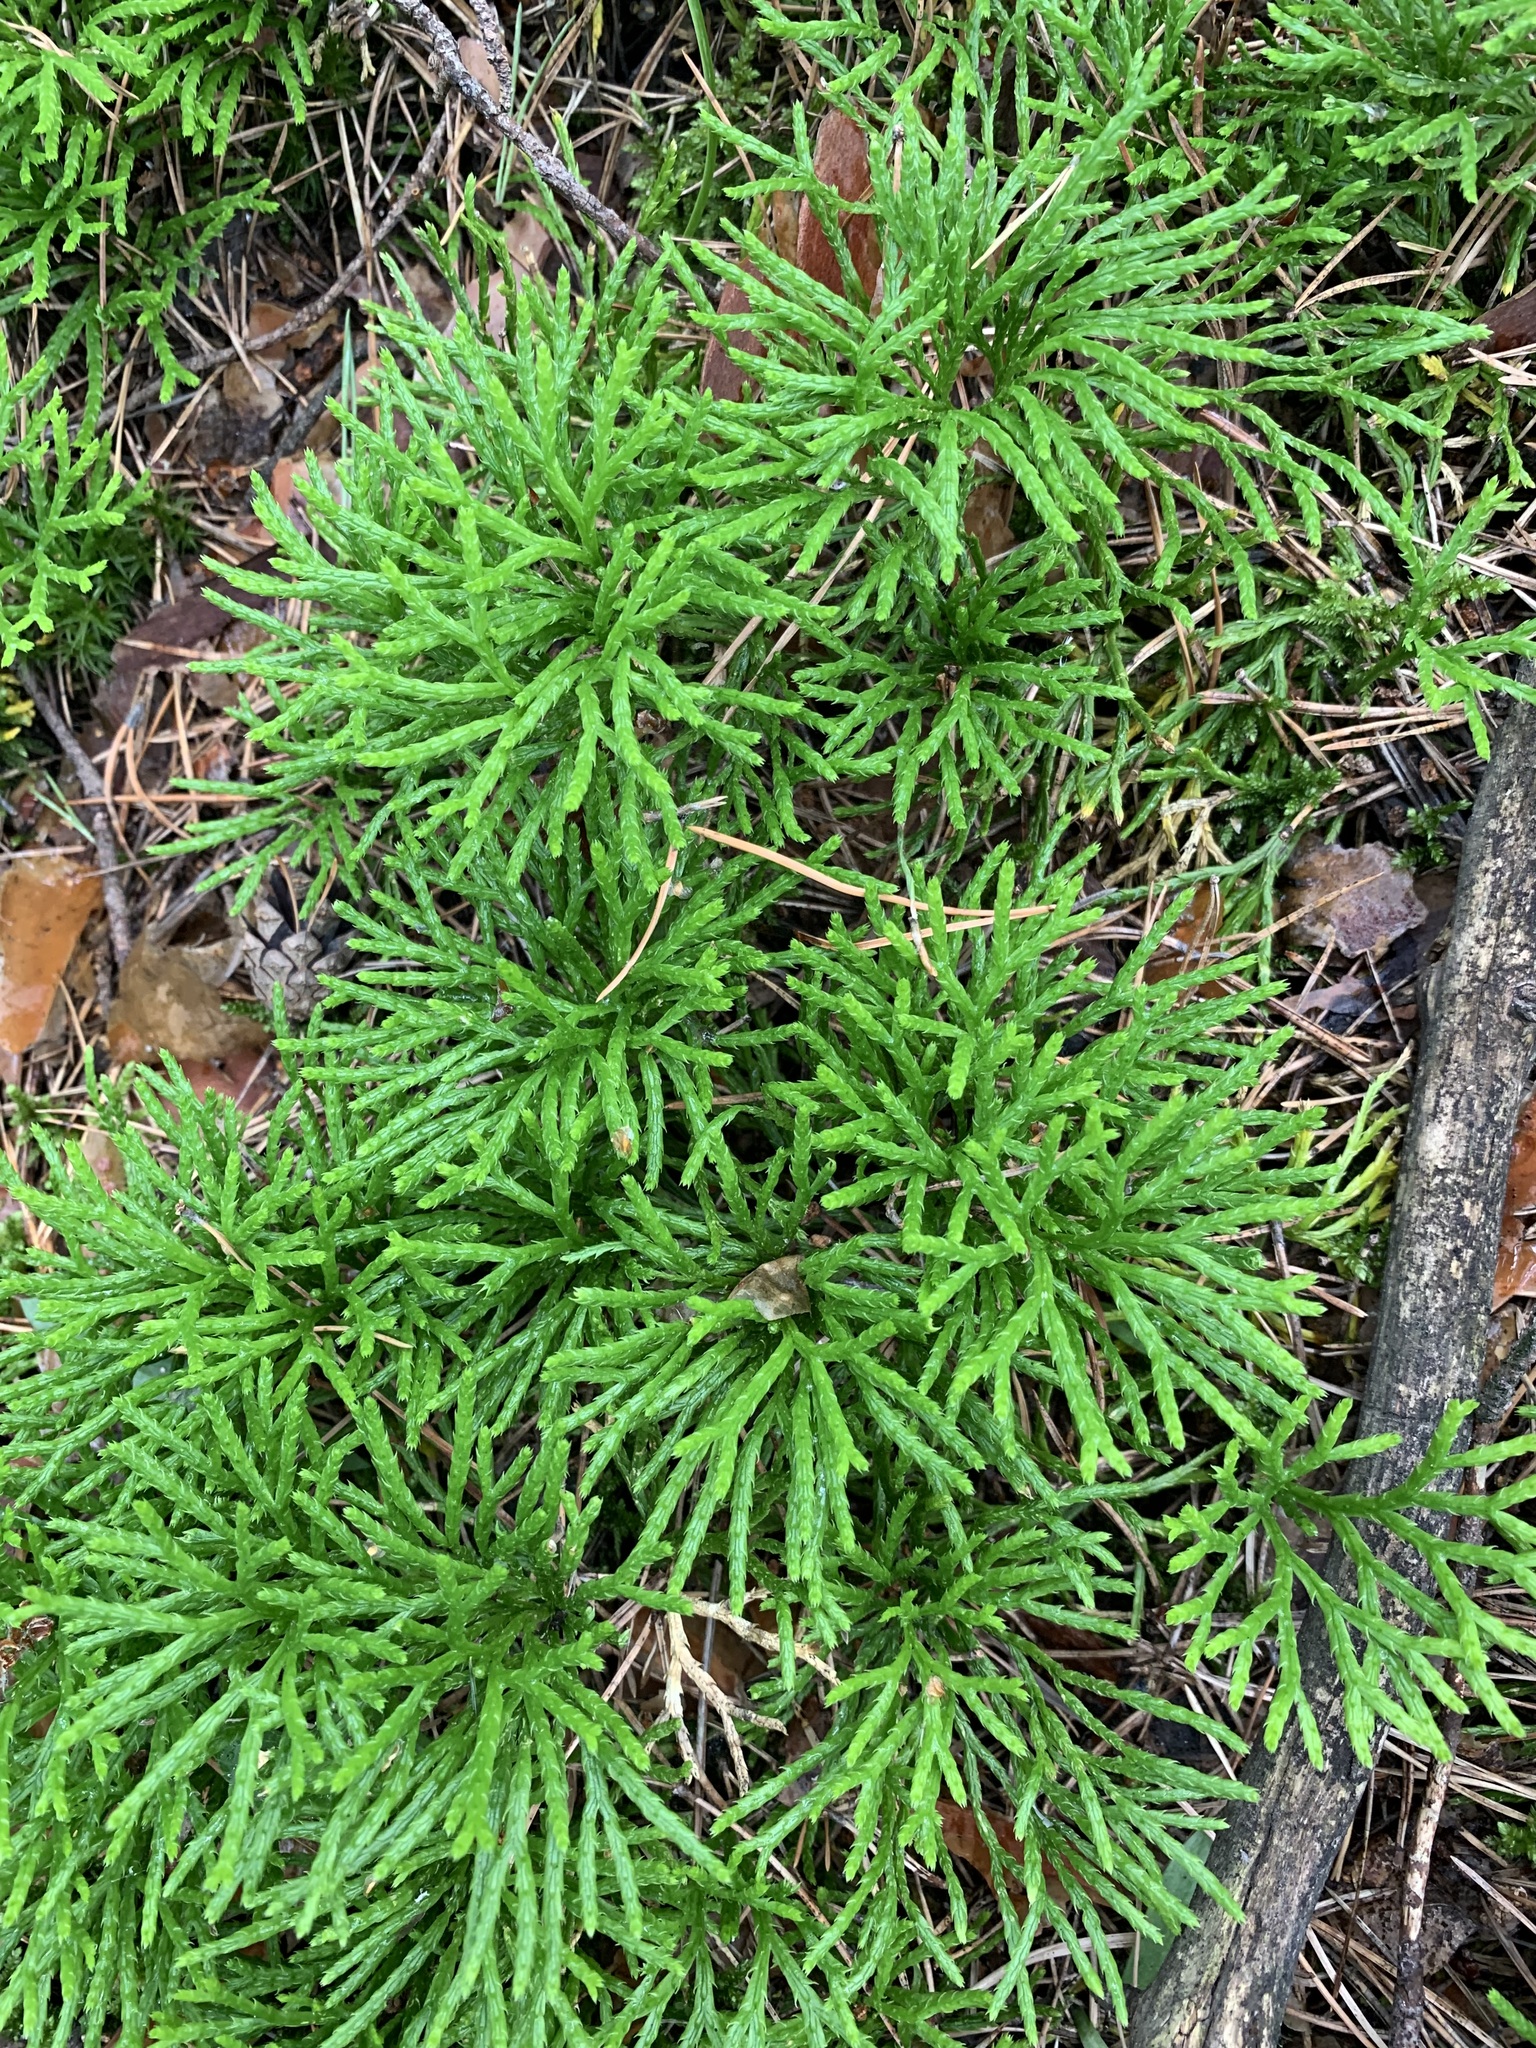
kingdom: Plantae
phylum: Tracheophyta
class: Lycopodiopsida
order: Lycopodiales
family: Lycopodiaceae
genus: Diphasiastrum
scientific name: Diphasiastrum complanatum
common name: Northern running-pine
